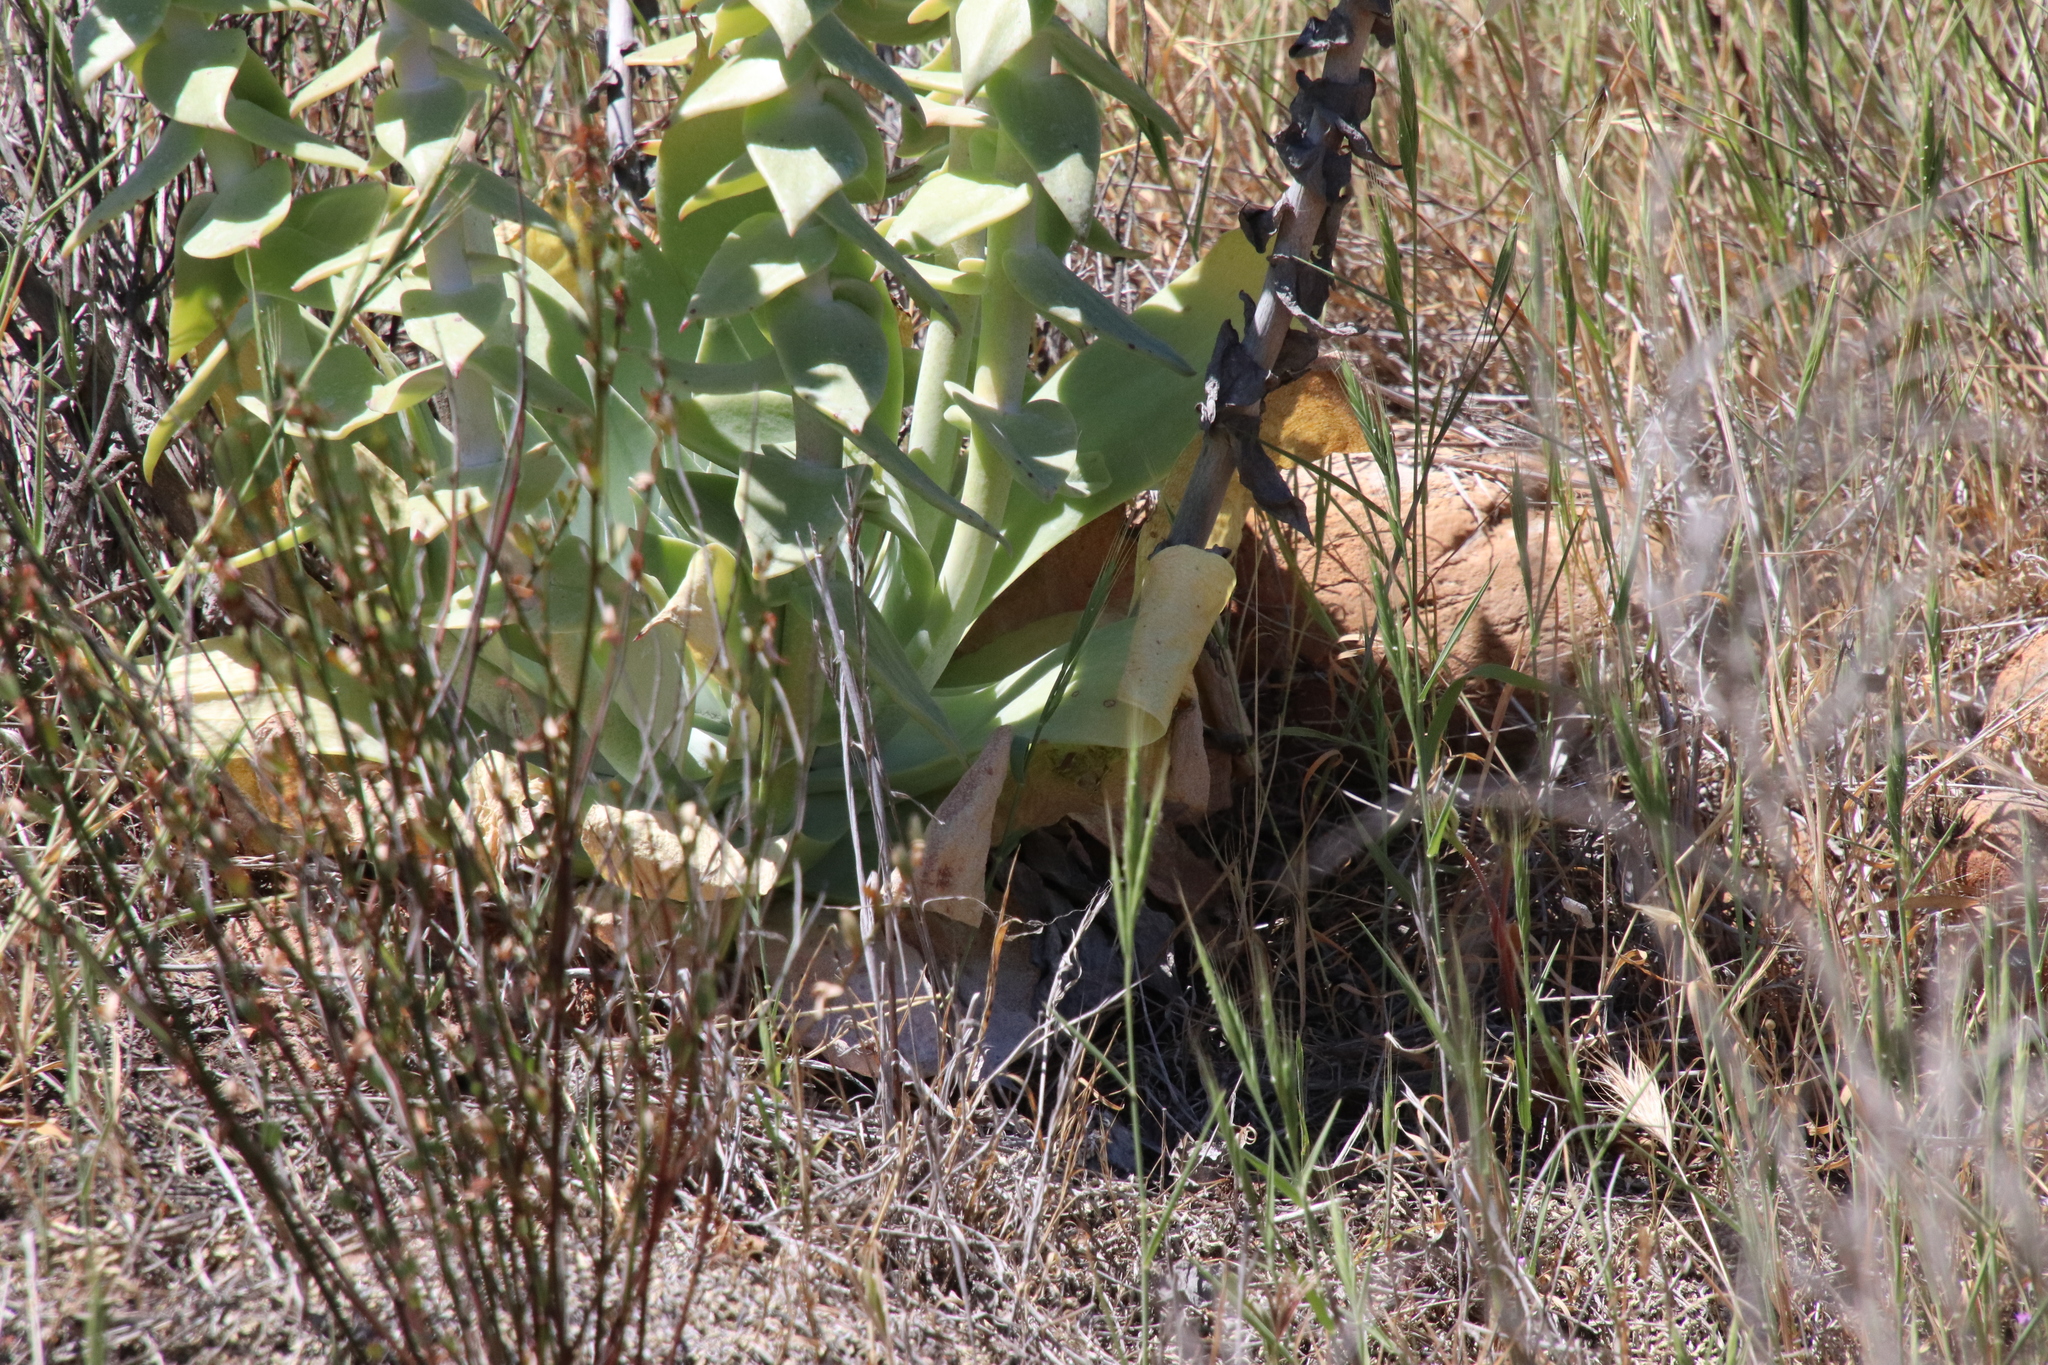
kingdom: Plantae
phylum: Tracheophyta
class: Magnoliopsida
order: Saxifragales
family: Crassulaceae
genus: Dudleya
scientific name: Dudleya pulverulenta
